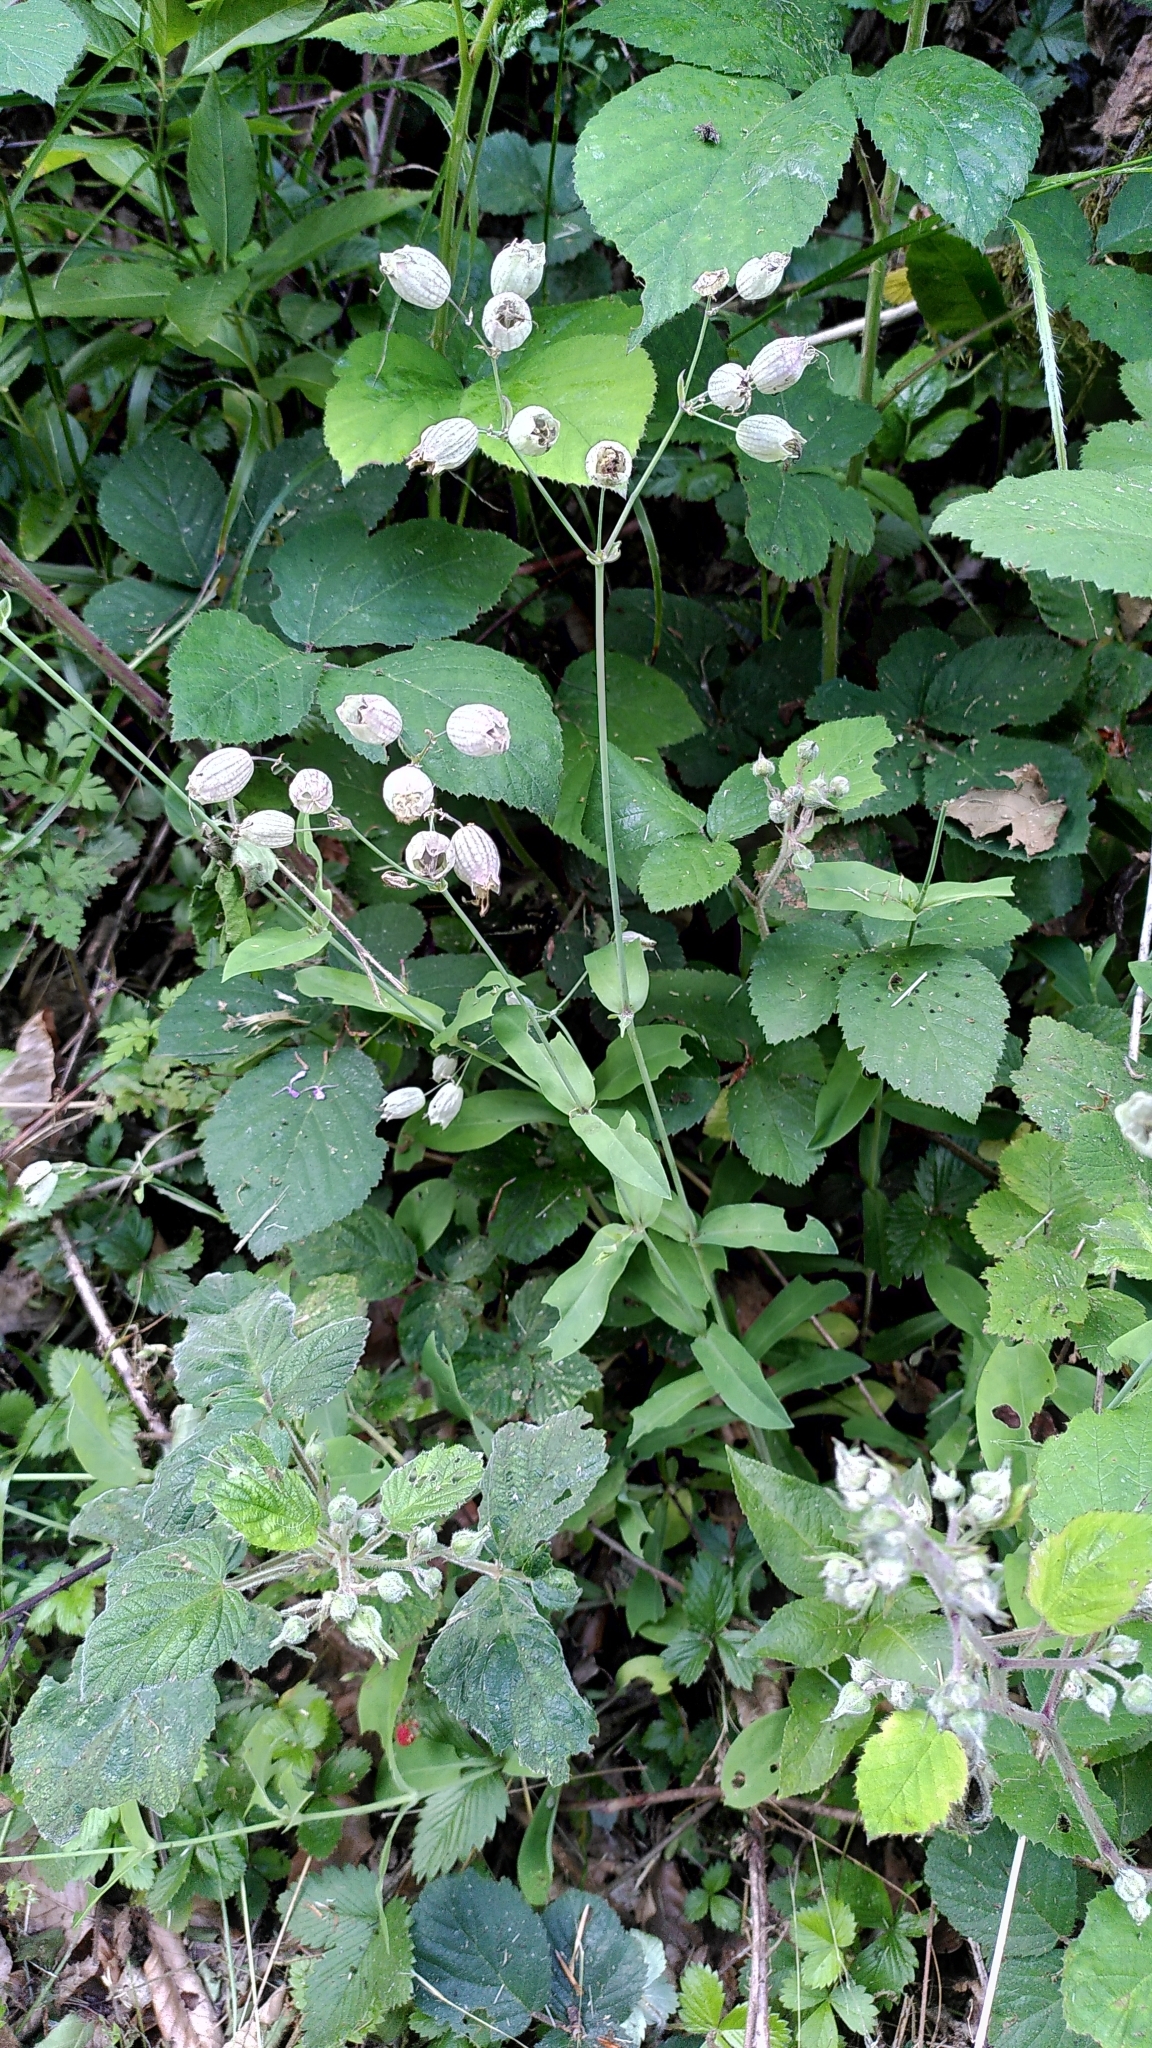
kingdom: Plantae
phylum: Tracheophyta
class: Magnoliopsida
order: Caryophyllales
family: Caryophyllaceae
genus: Silene
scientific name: Silene vulgaris
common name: Bladder campion
